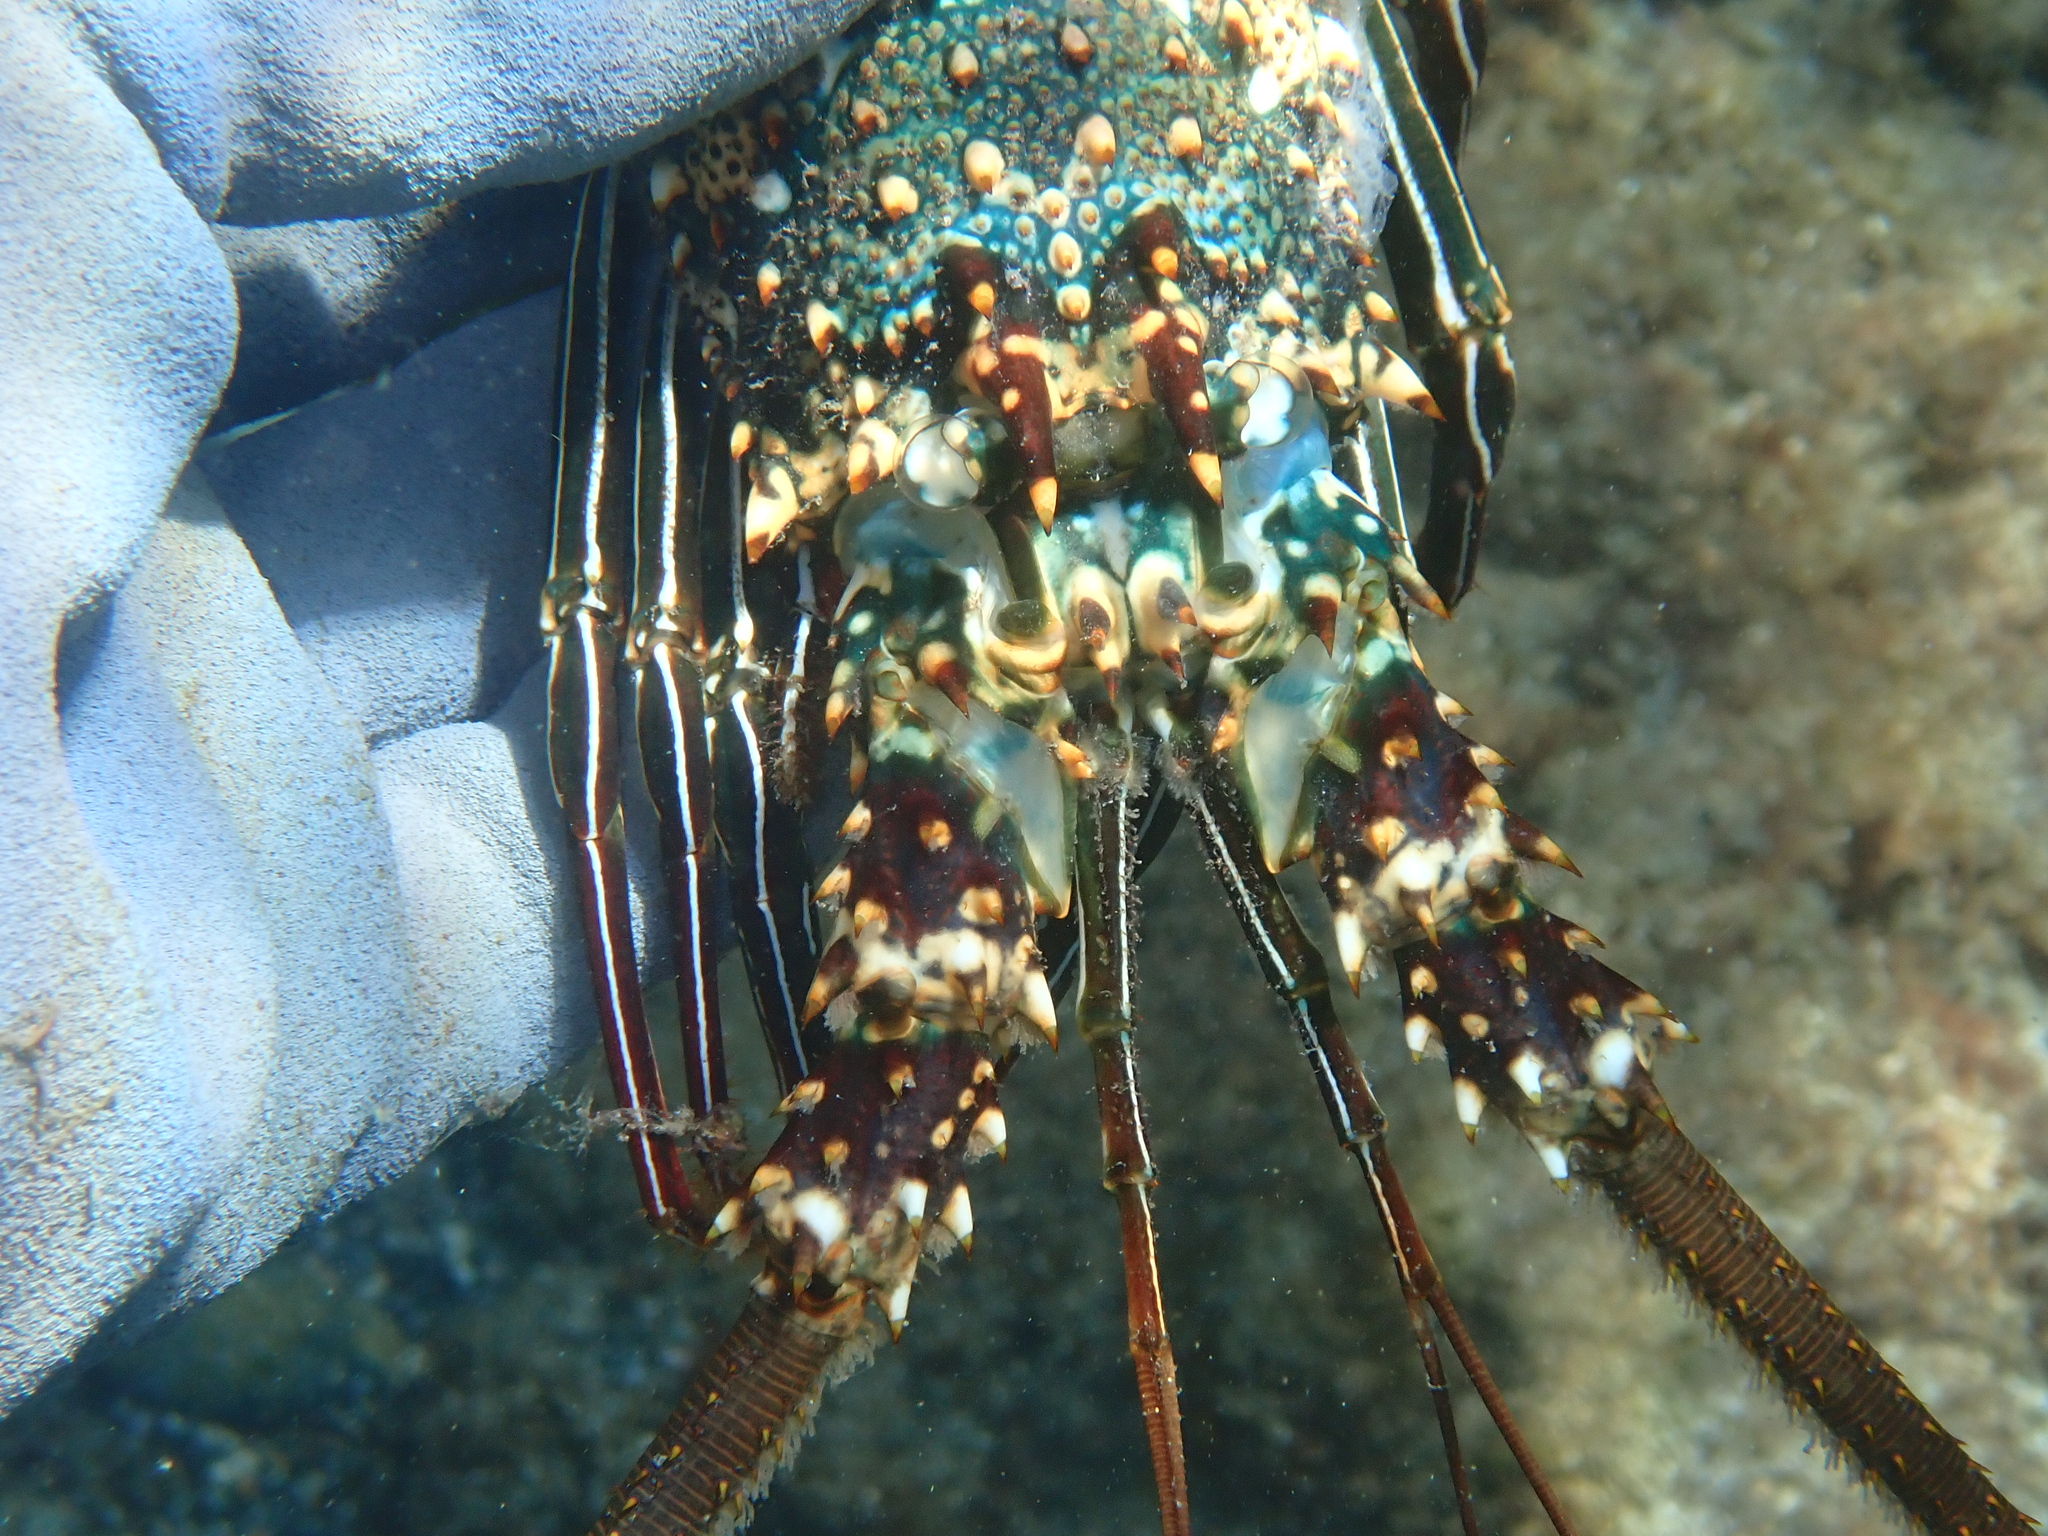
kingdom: Animalia
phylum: Arthropoda
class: Malacostraca
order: Decapoda
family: Palinuridae
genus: Panulirus
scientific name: Panulirus penicillatus
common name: Pronghorn spiny lobster
